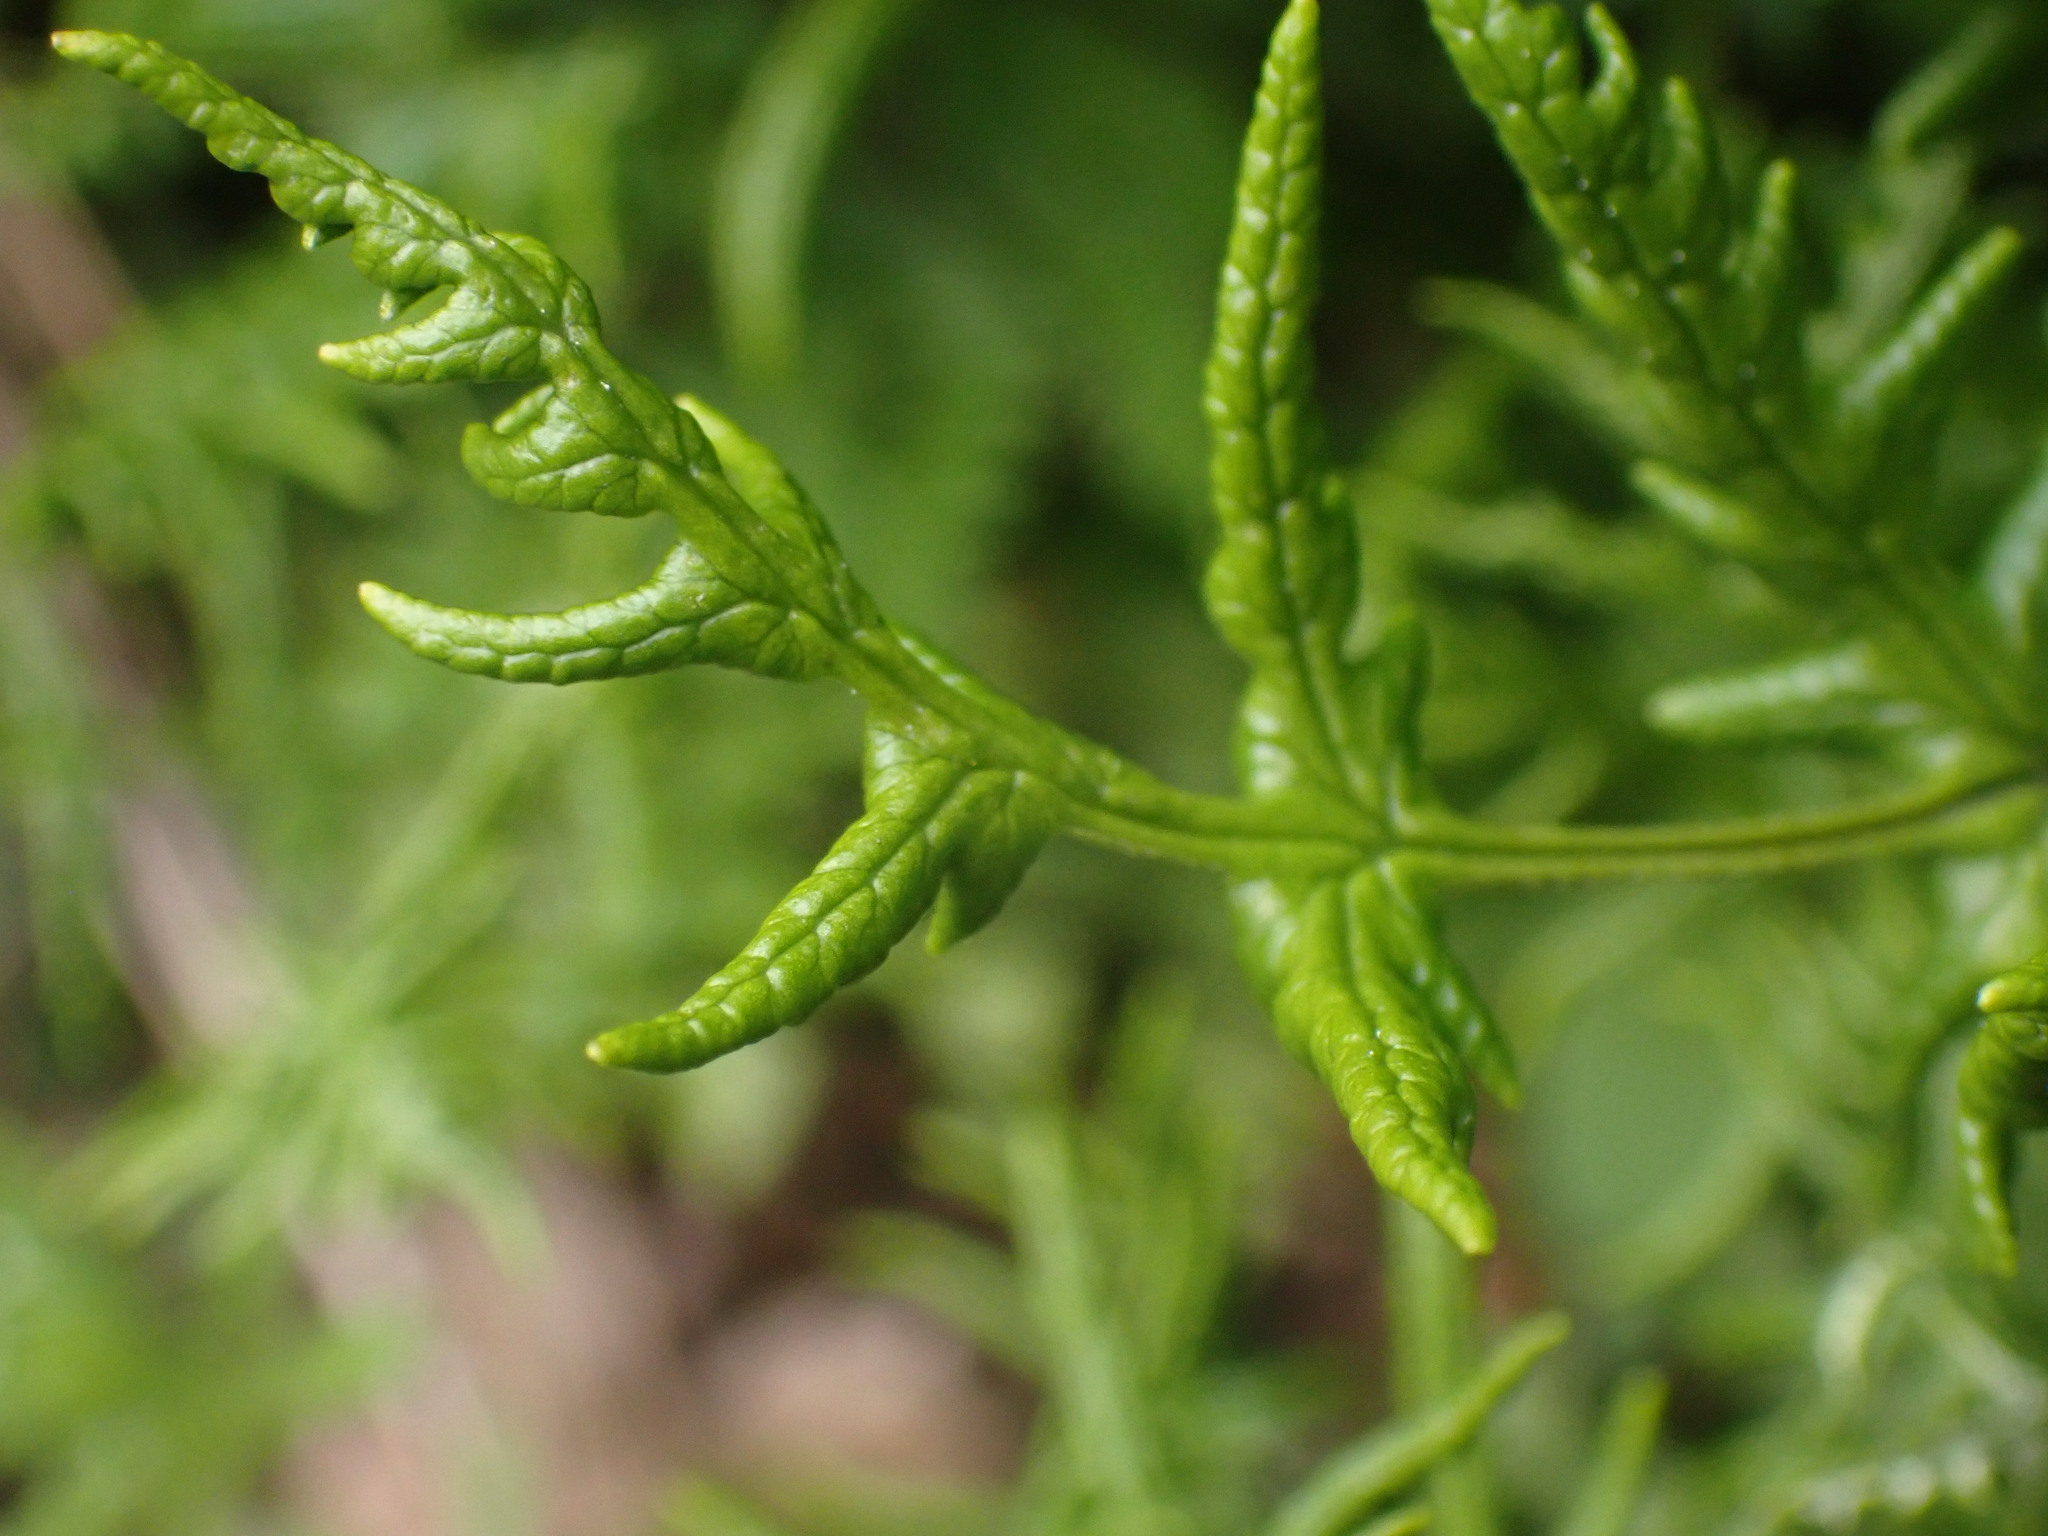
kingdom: Plantae
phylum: Tracheophyta
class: Polypodiopsida
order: Polypodiales
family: Pteridaceae
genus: Pentagramma
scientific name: Pentagramma triangularis
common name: Gold fern
